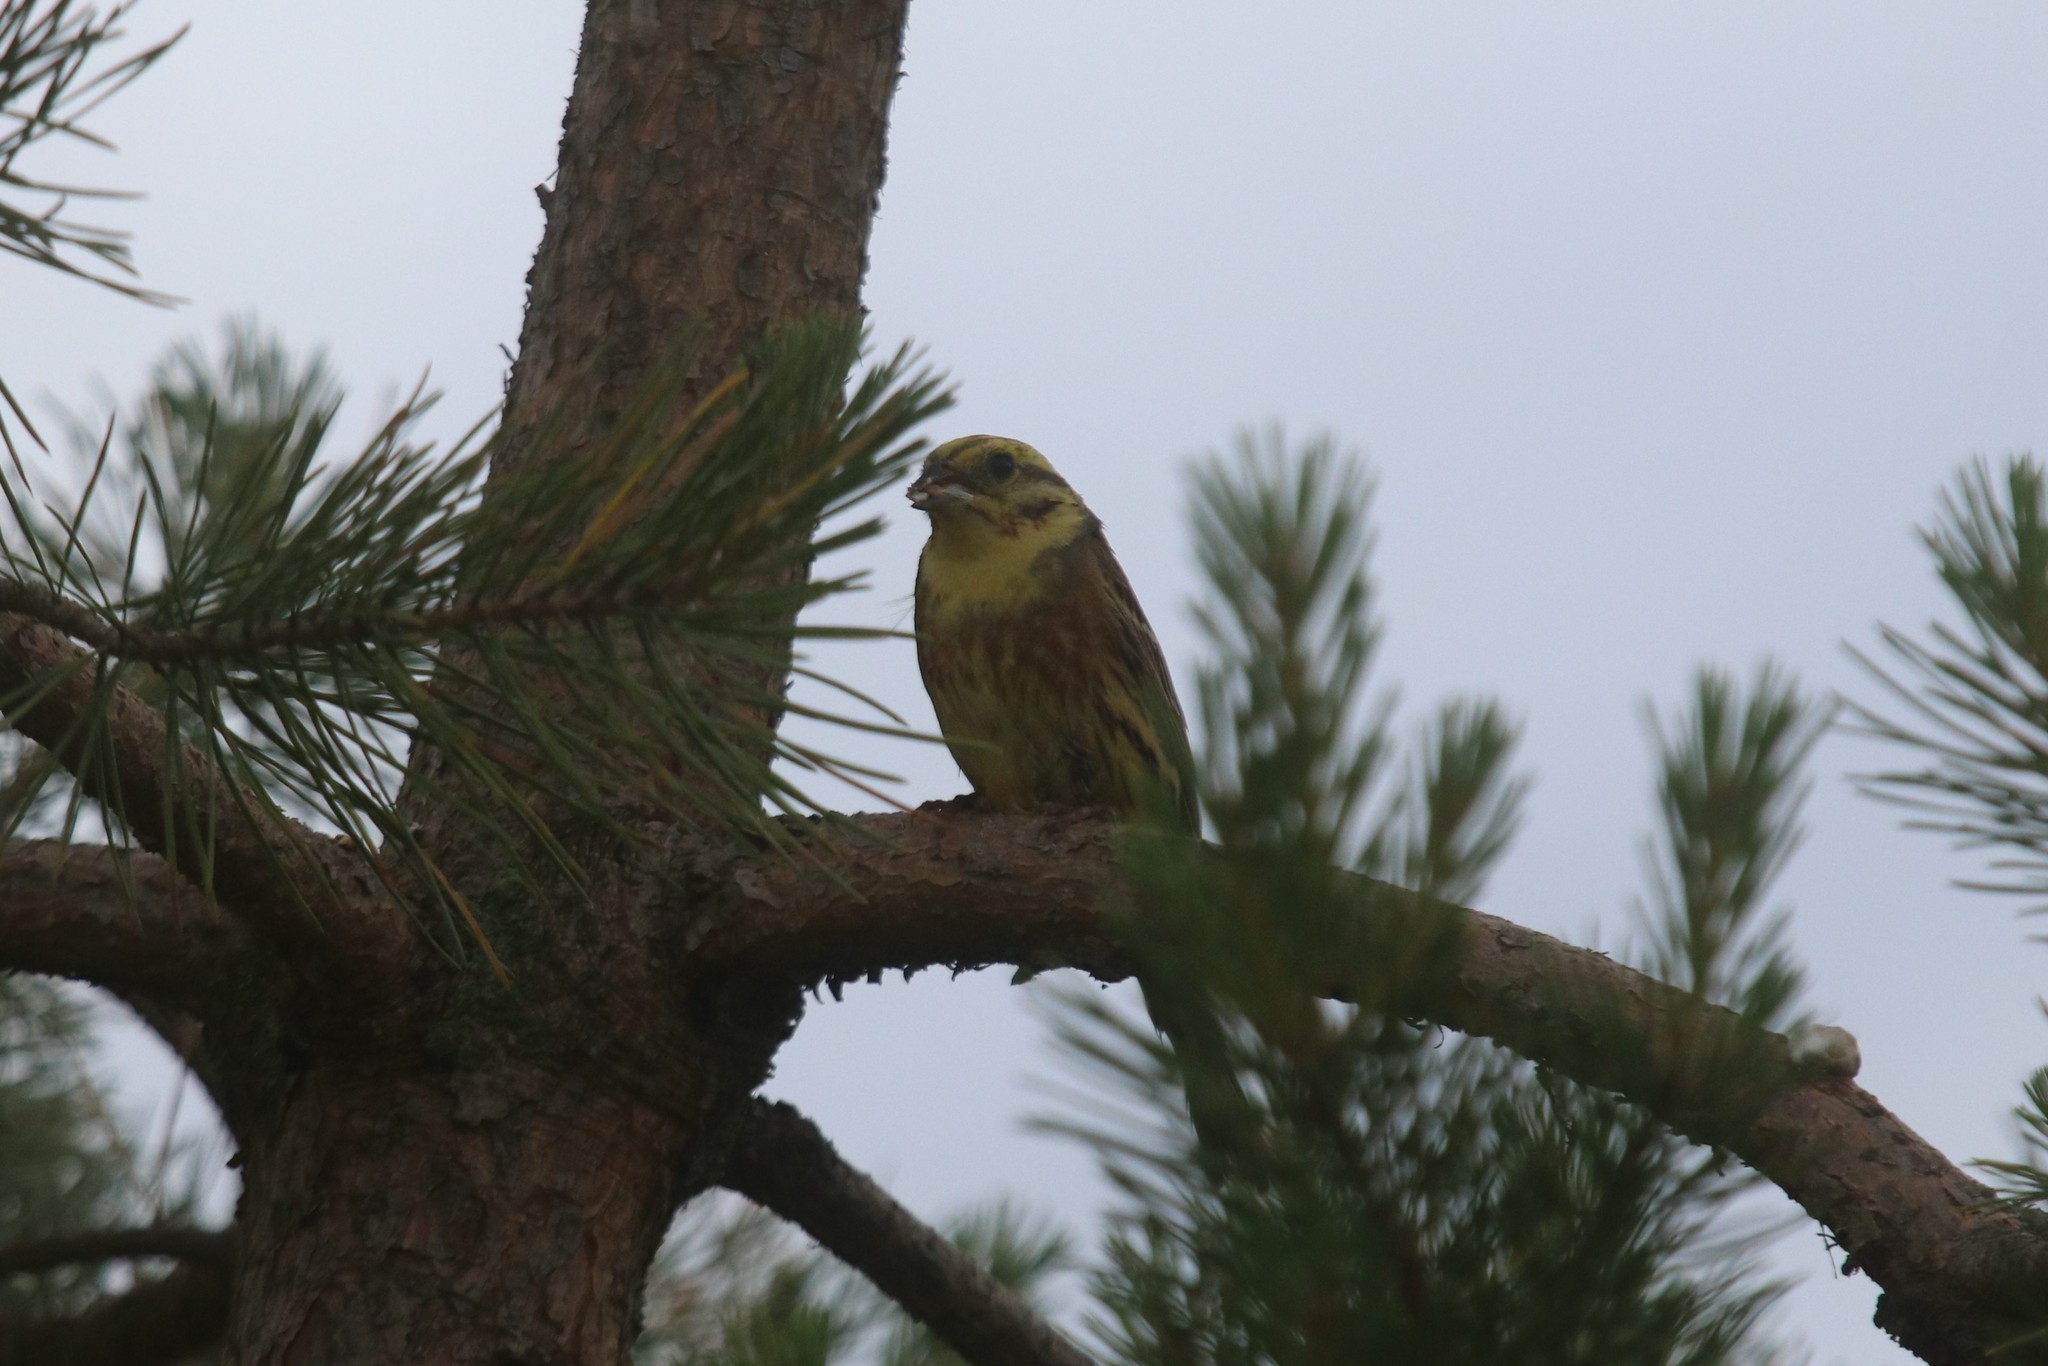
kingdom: Animalia
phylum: Chordata
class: Aves
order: Passeriformes
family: Emberizidae
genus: Emberiza
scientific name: Emberiza citrinella
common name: Yellowhammer
